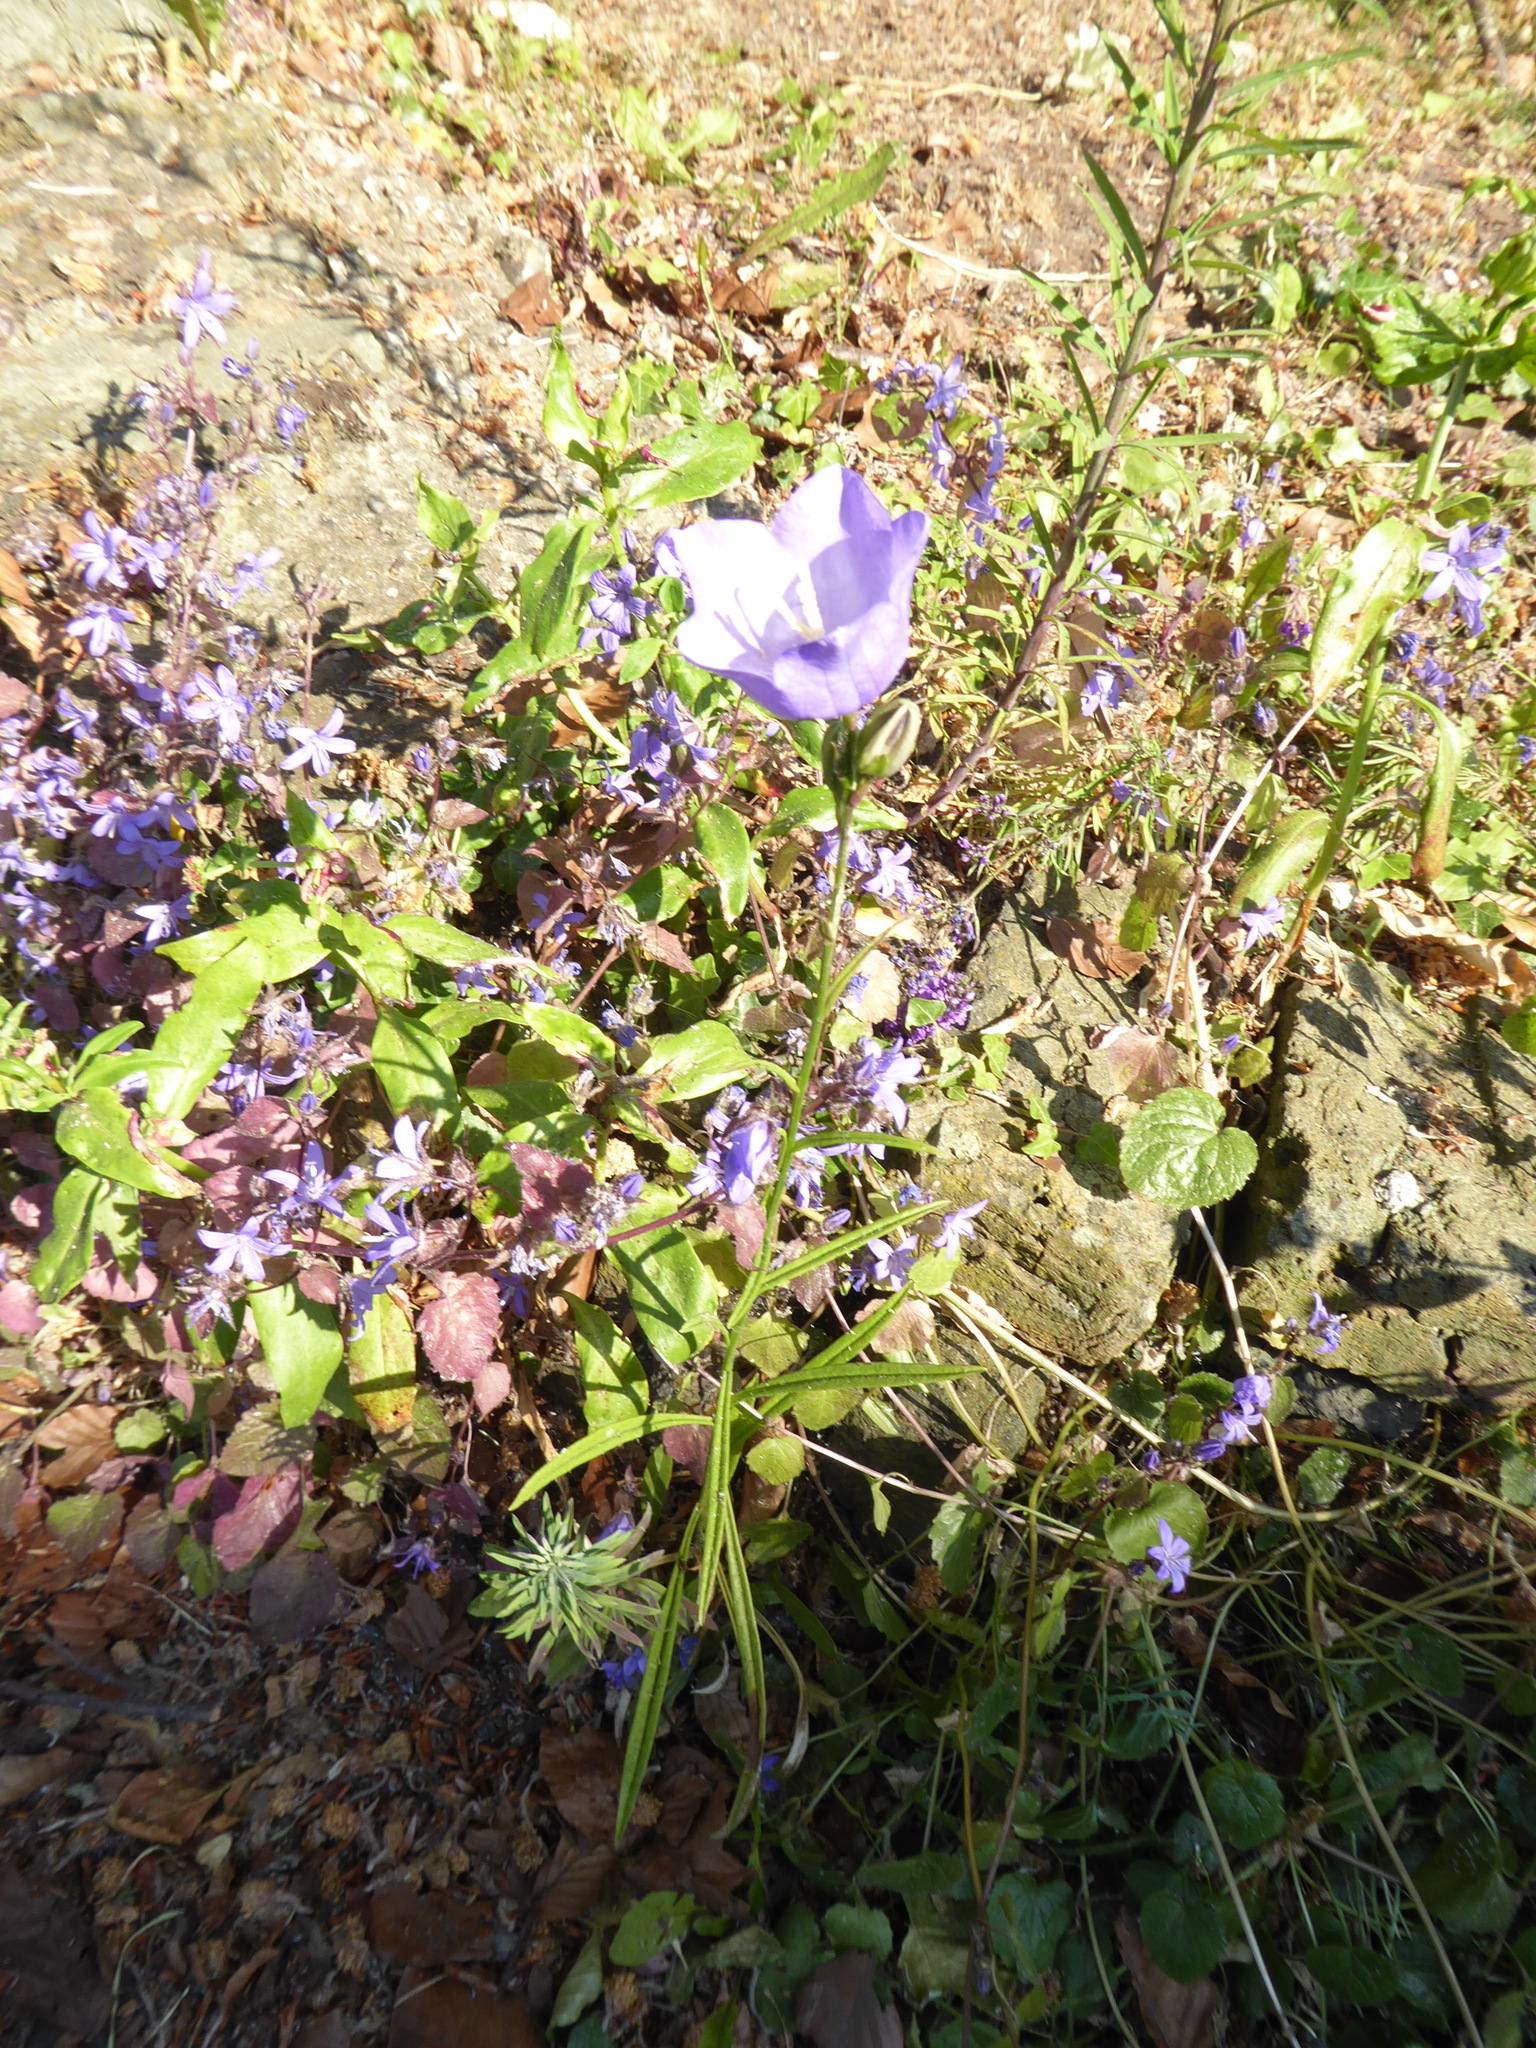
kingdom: Plantae
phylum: Tracheophyta
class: Magnoliopsida
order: Asterales
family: Campanulaceae
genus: Campanula
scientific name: Campanula persicifolia
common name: Peach-leaved bellflower
